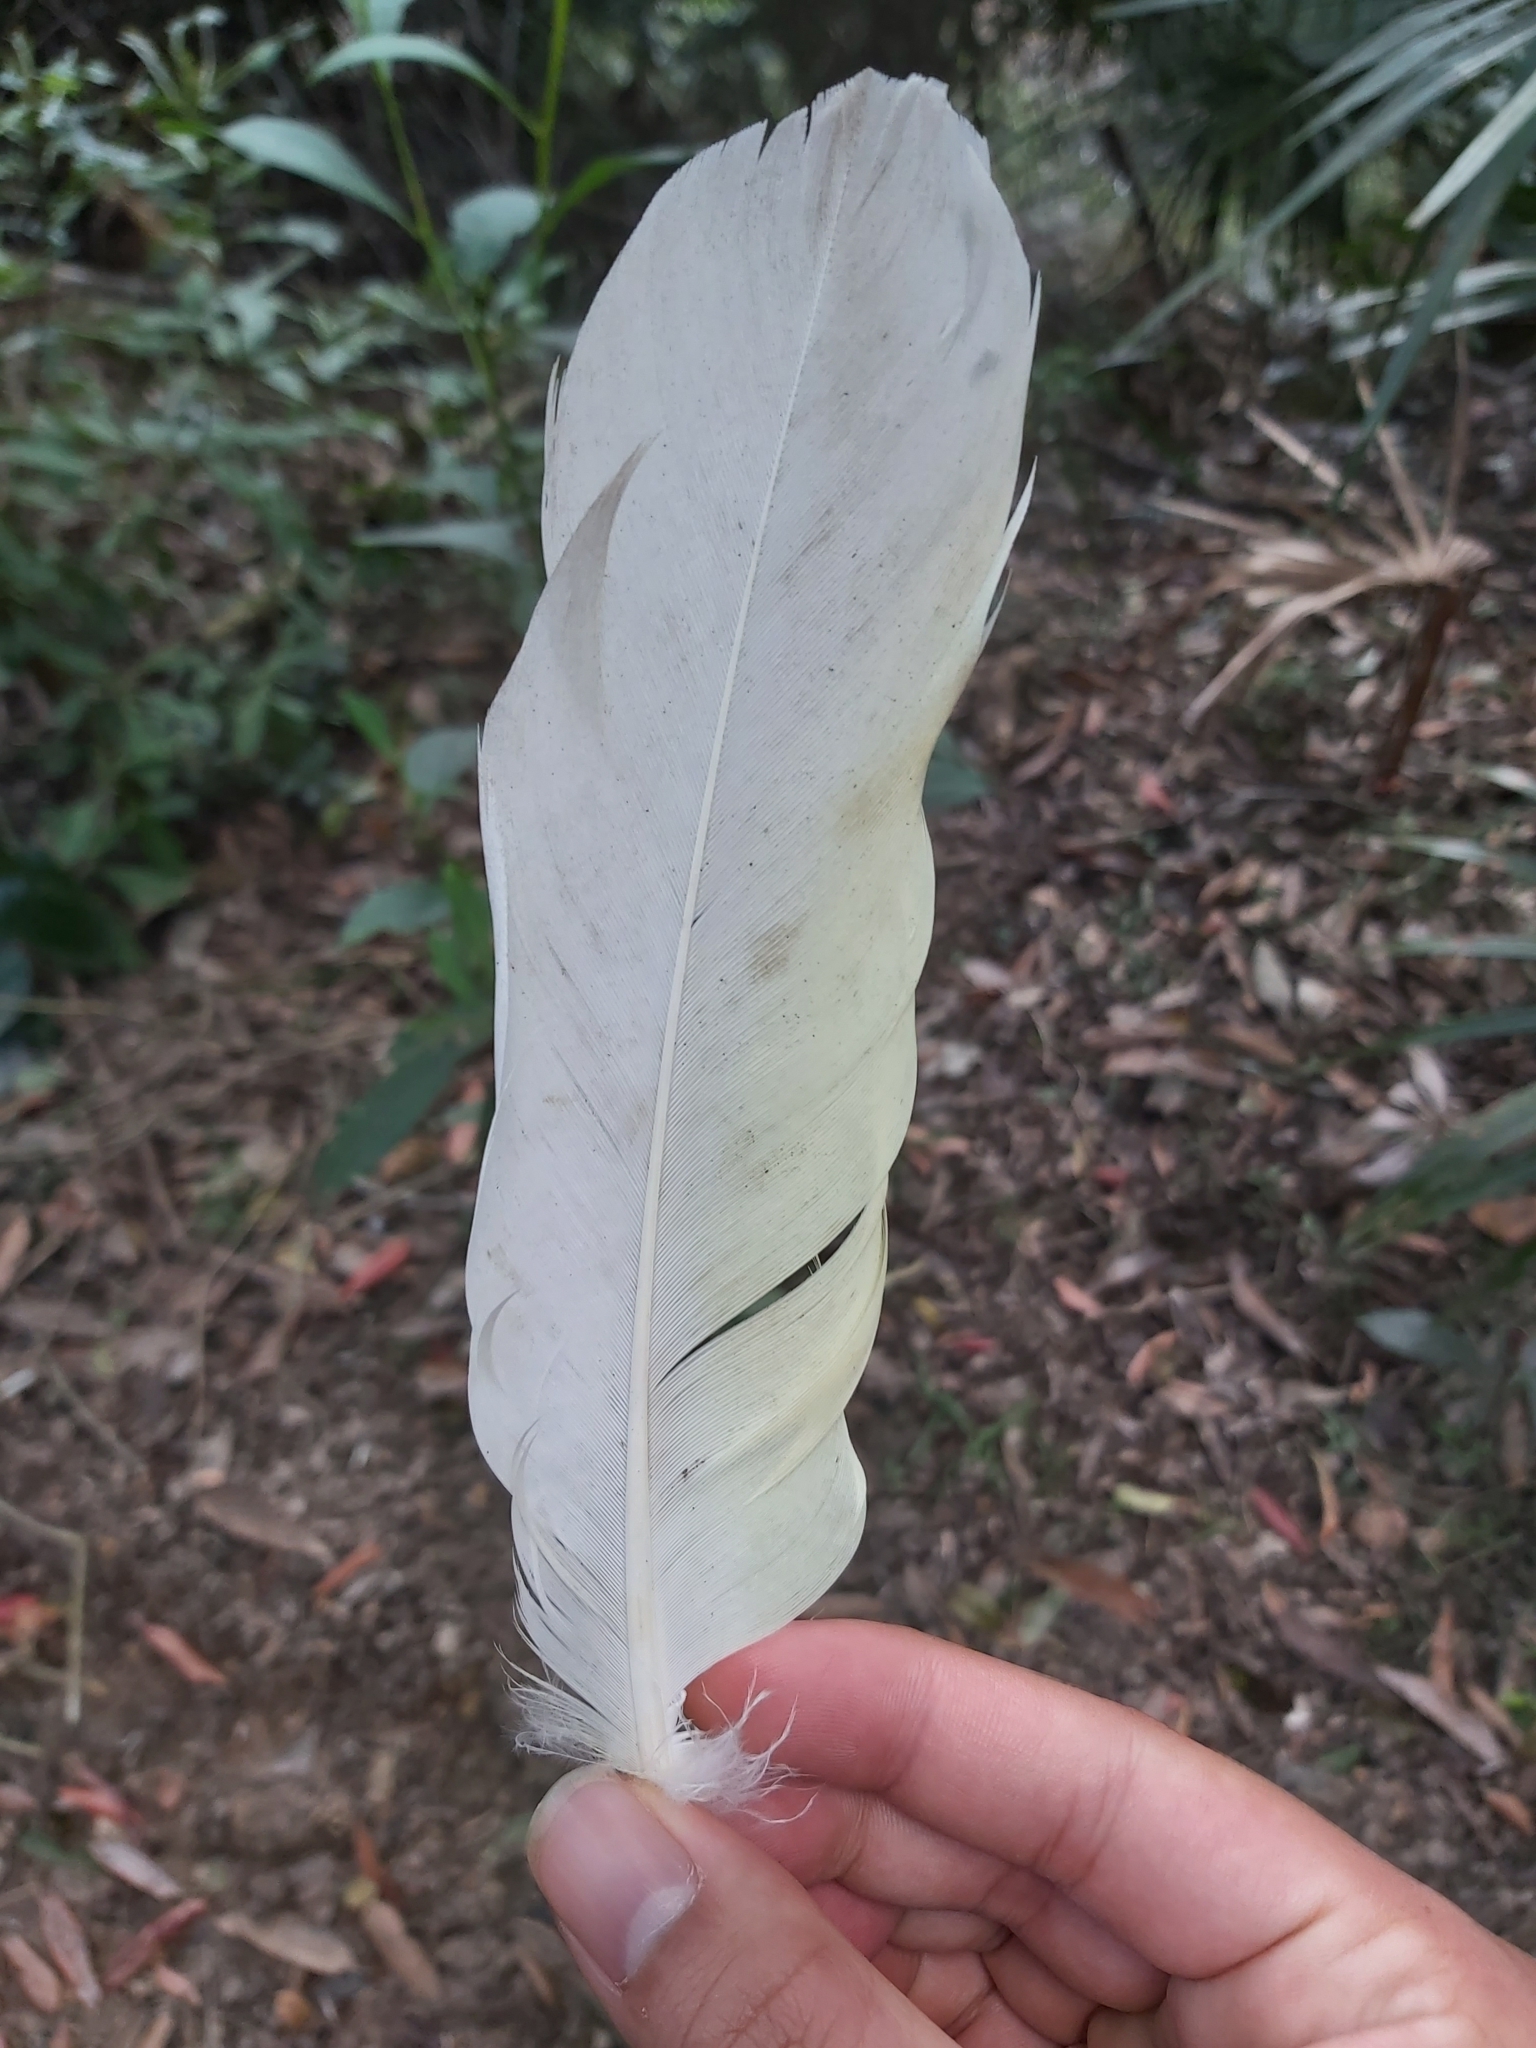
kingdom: Animalia
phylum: Chordata
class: Aves
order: Psittaciformes
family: Psittacidae
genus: Cacatua
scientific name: Cacatua galerita
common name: Sulphur-crested cockatoo
